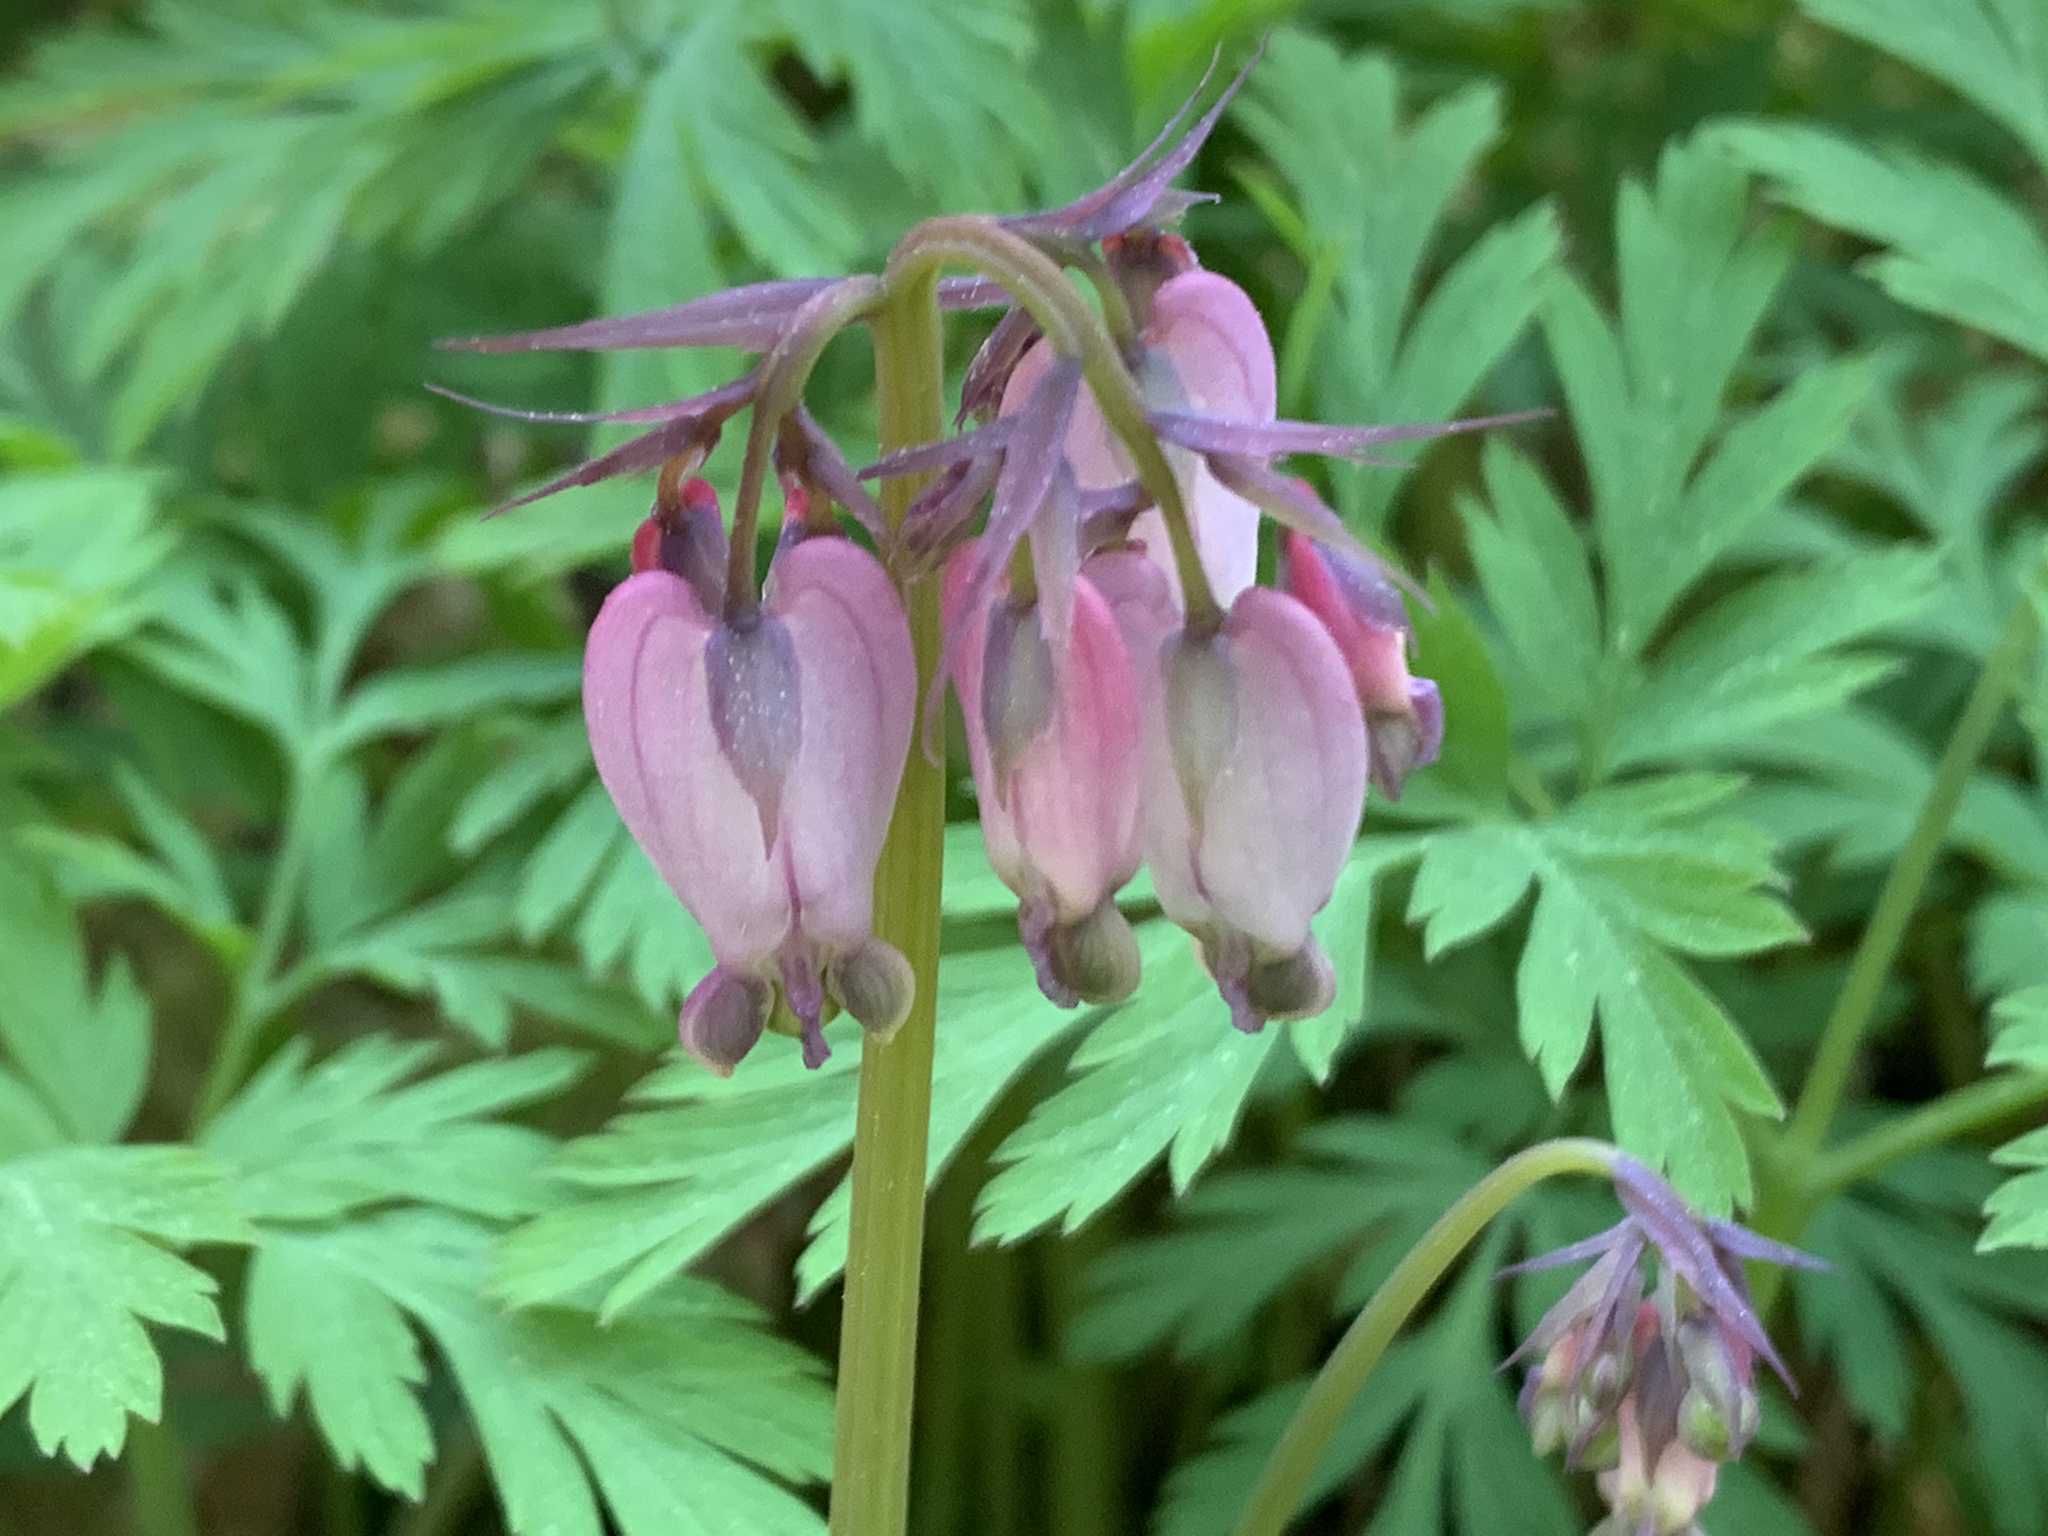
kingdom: Plantae
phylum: Tracheophyta
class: Magnoliopsida
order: Ranunculales
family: Papaveraceae
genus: Dicentra
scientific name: Dicentra formosa
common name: Bleeding-heart
